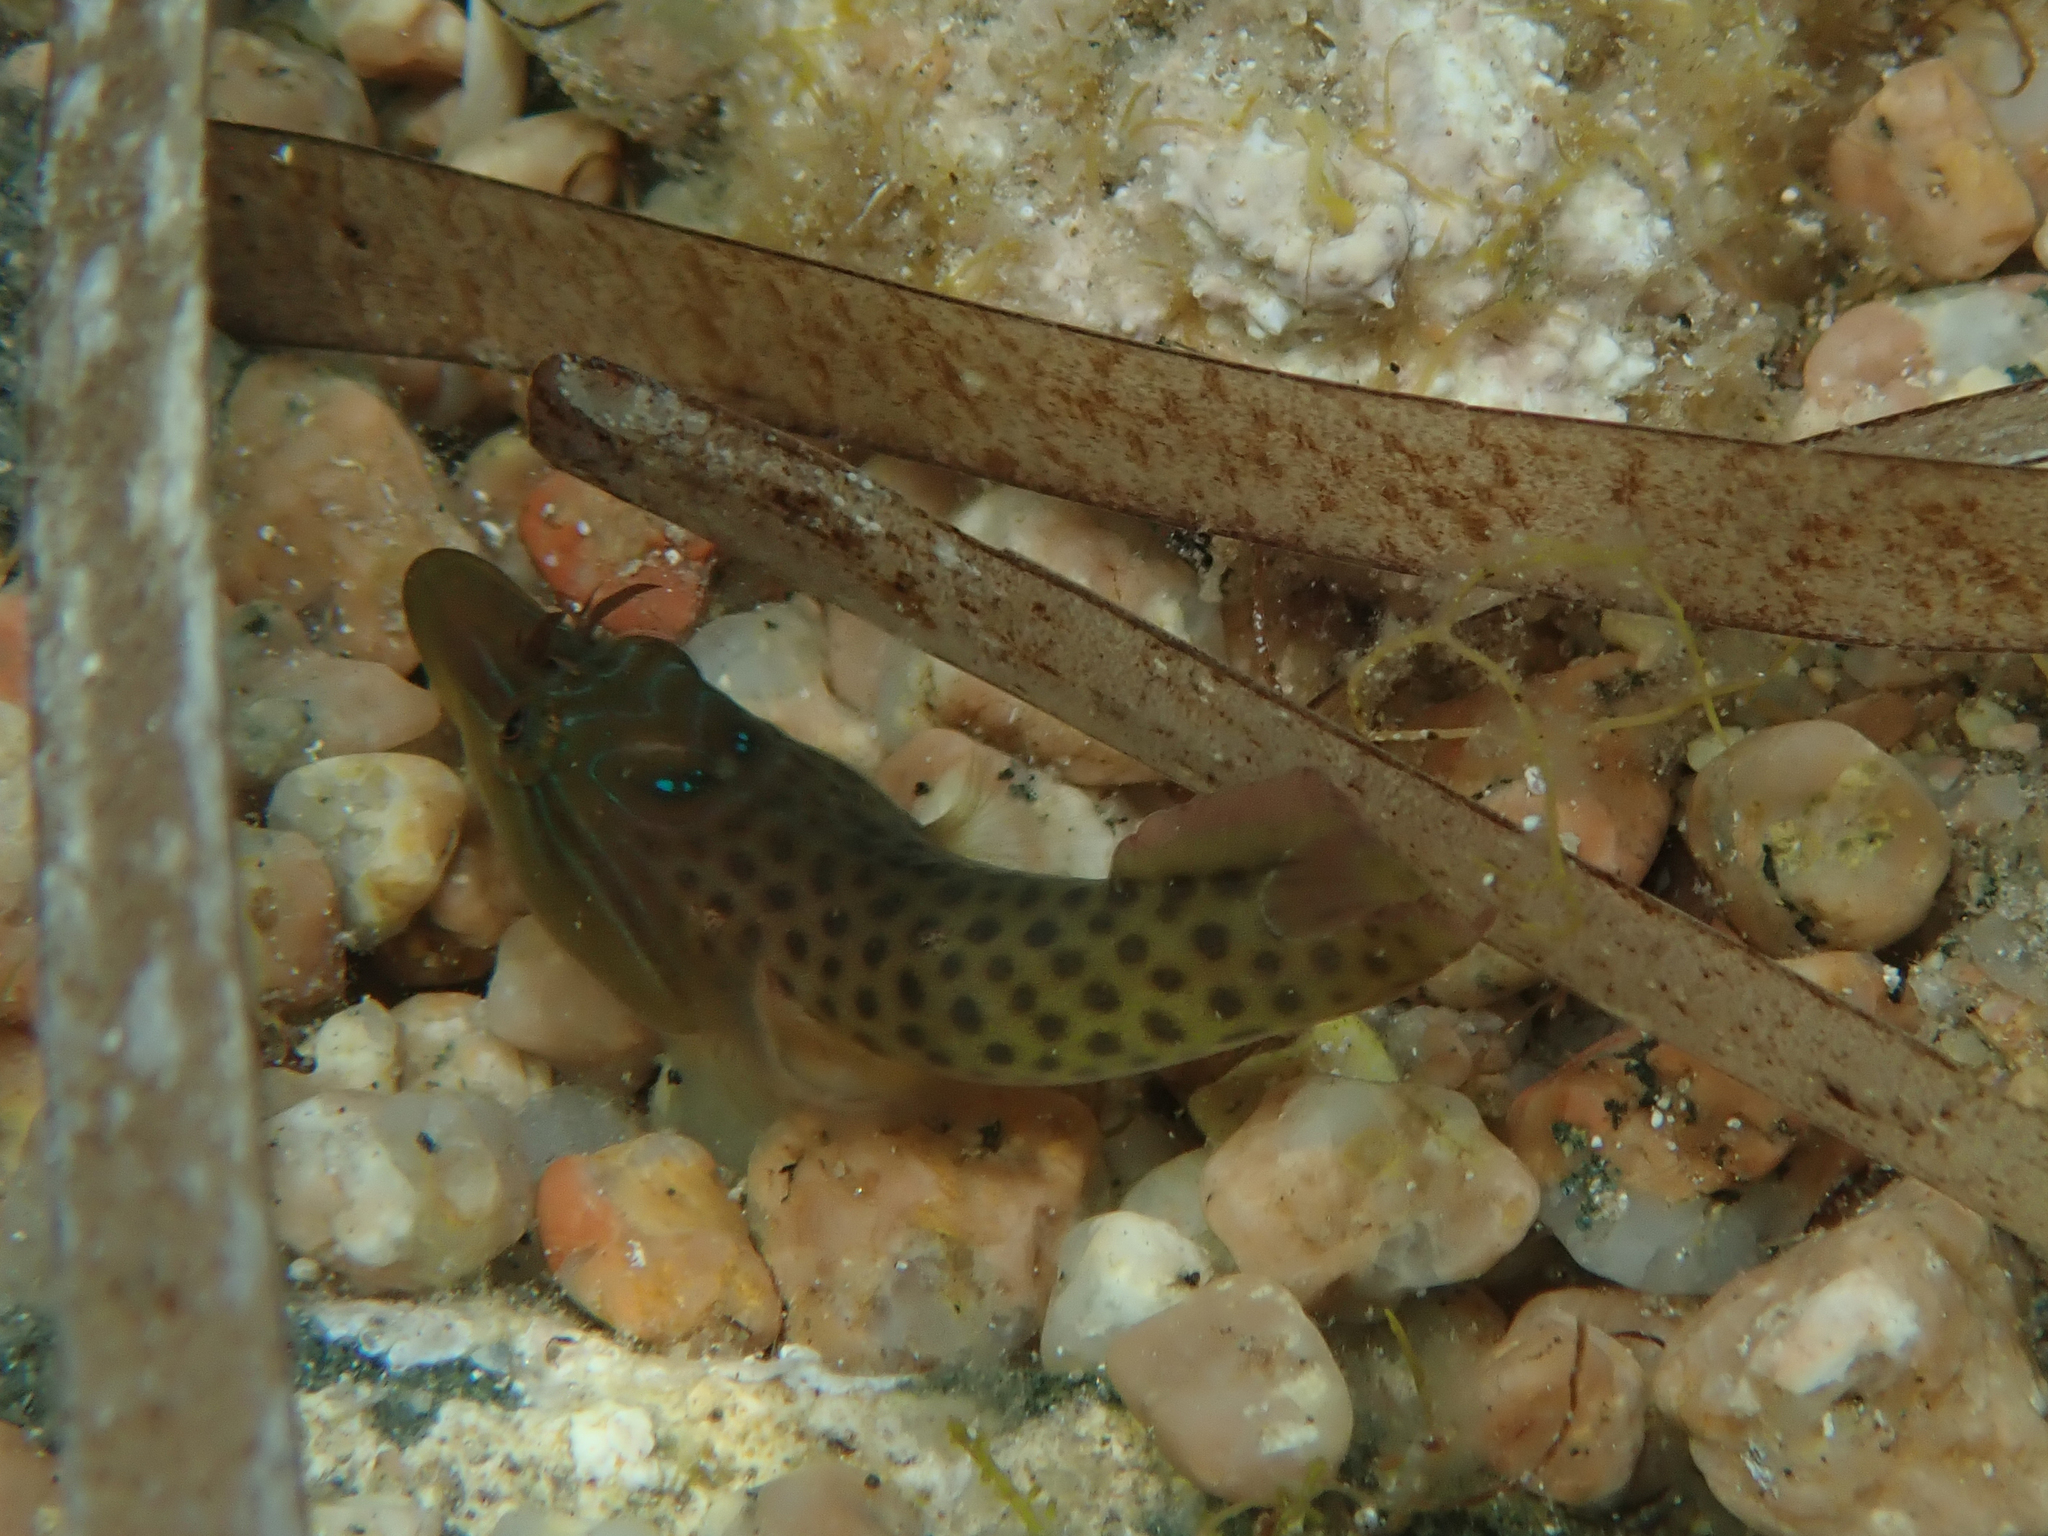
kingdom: Animalia
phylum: Chordata
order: Gobiesociformes
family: Gobiesocidae
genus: Lepadogaster
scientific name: Lepadogaster lepadogaster
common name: Cornish sucker
